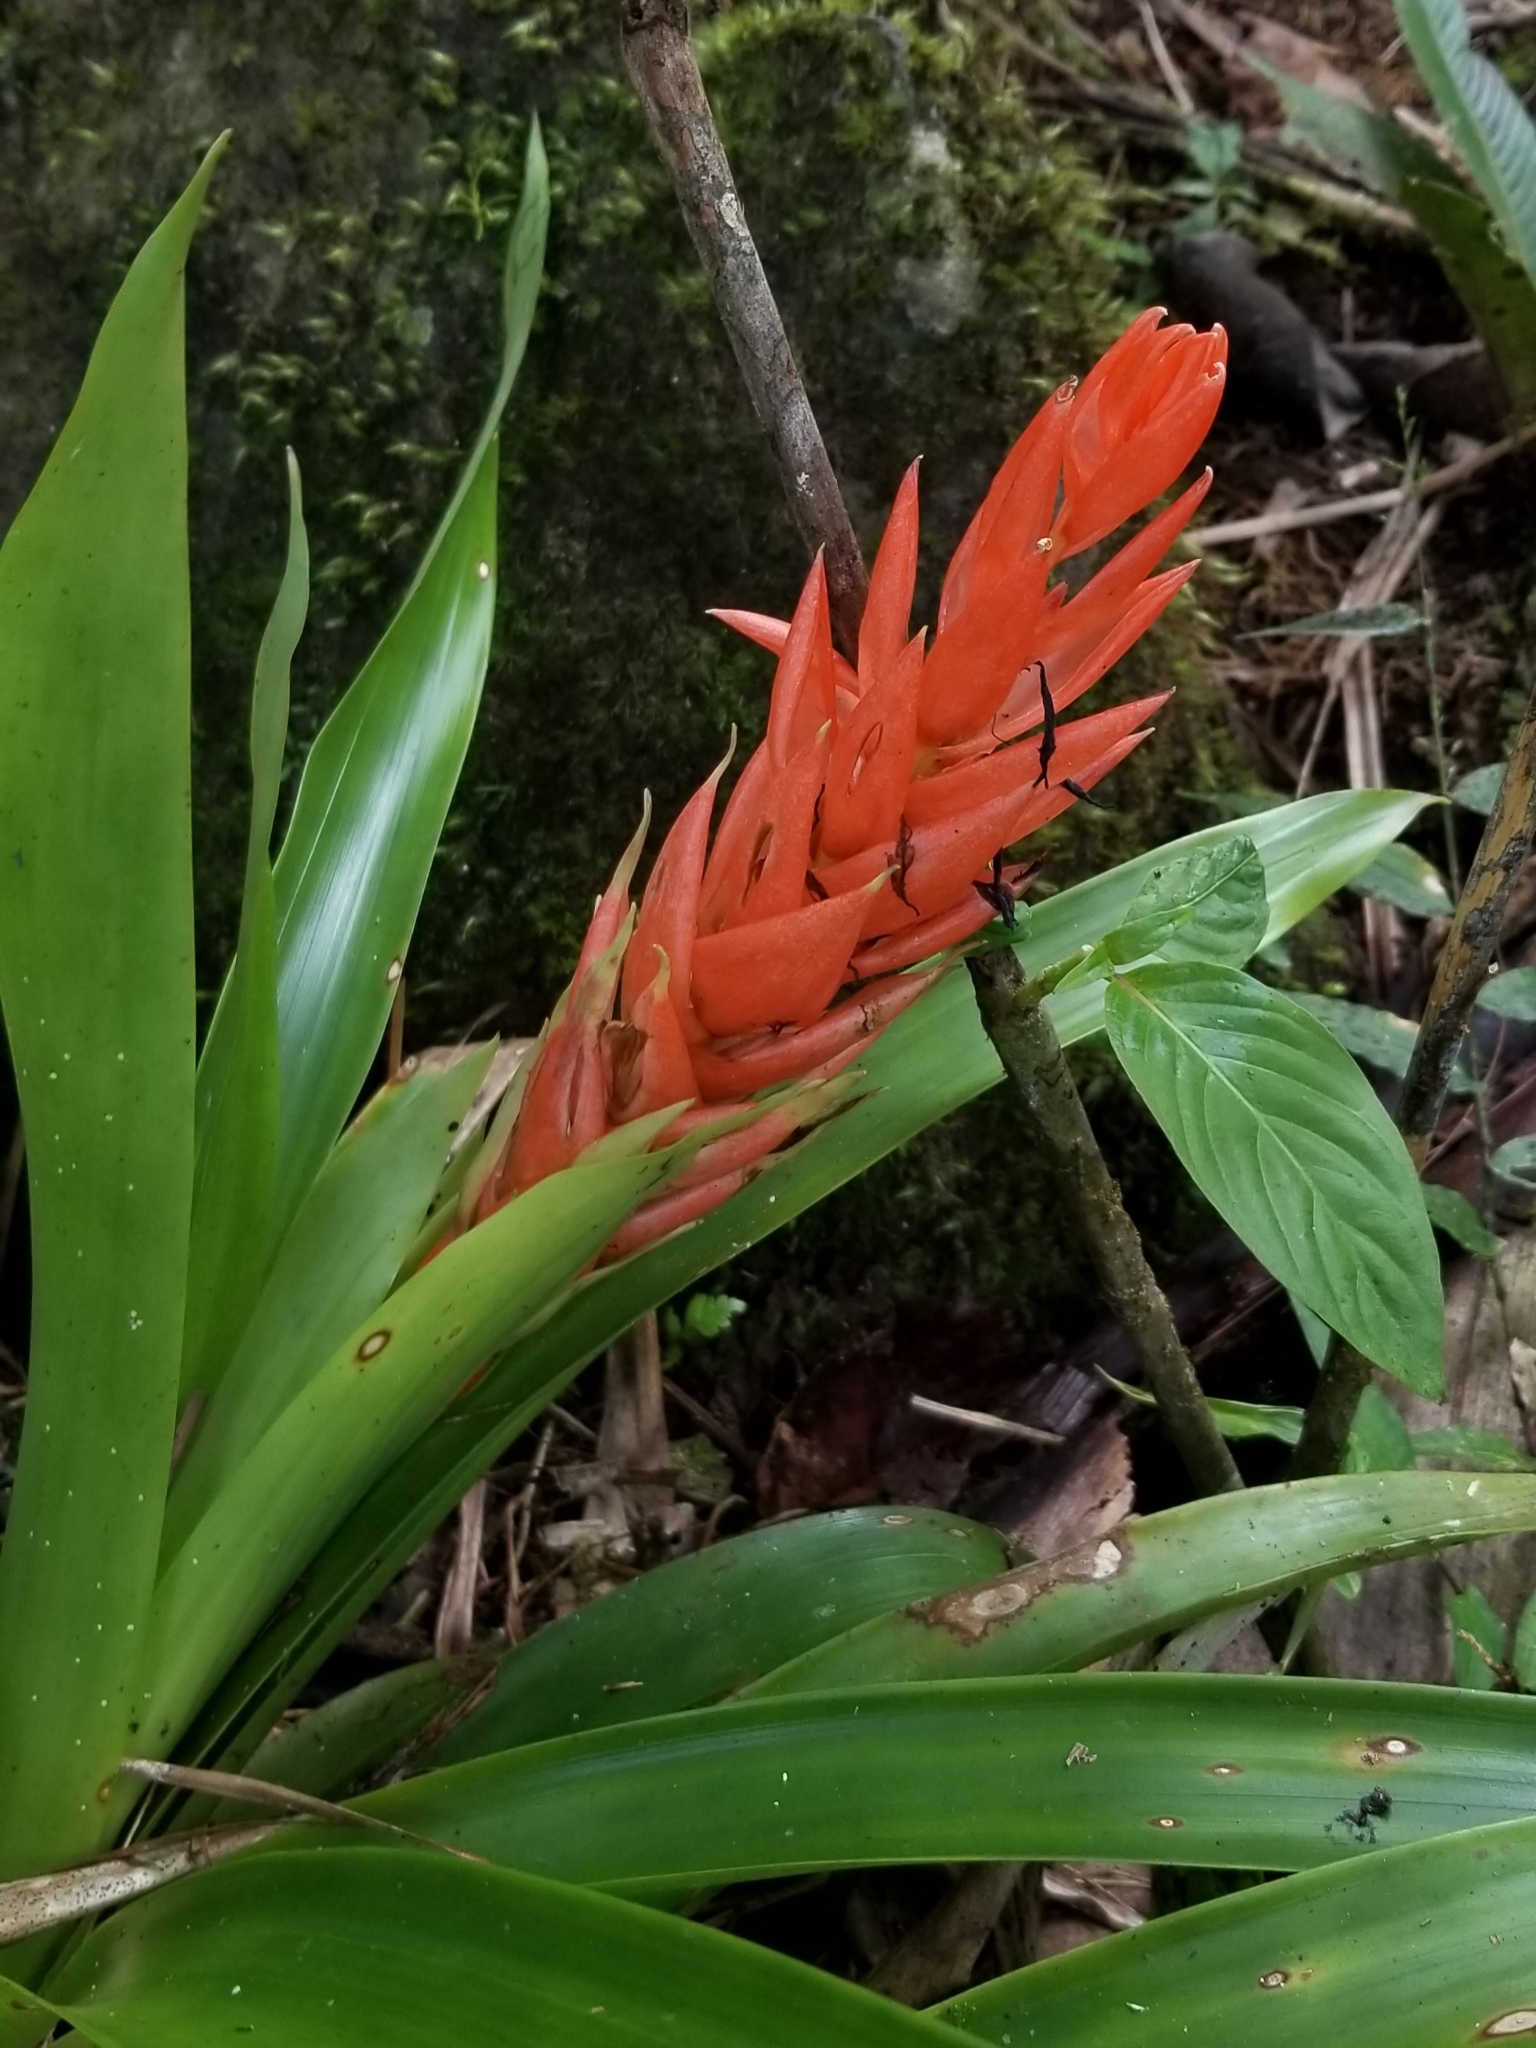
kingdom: Plantae
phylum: Tracheophyta
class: Liliopsida
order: Poales
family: Bromeliaceae
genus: Guzmania
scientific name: Guzmania berteroniana
